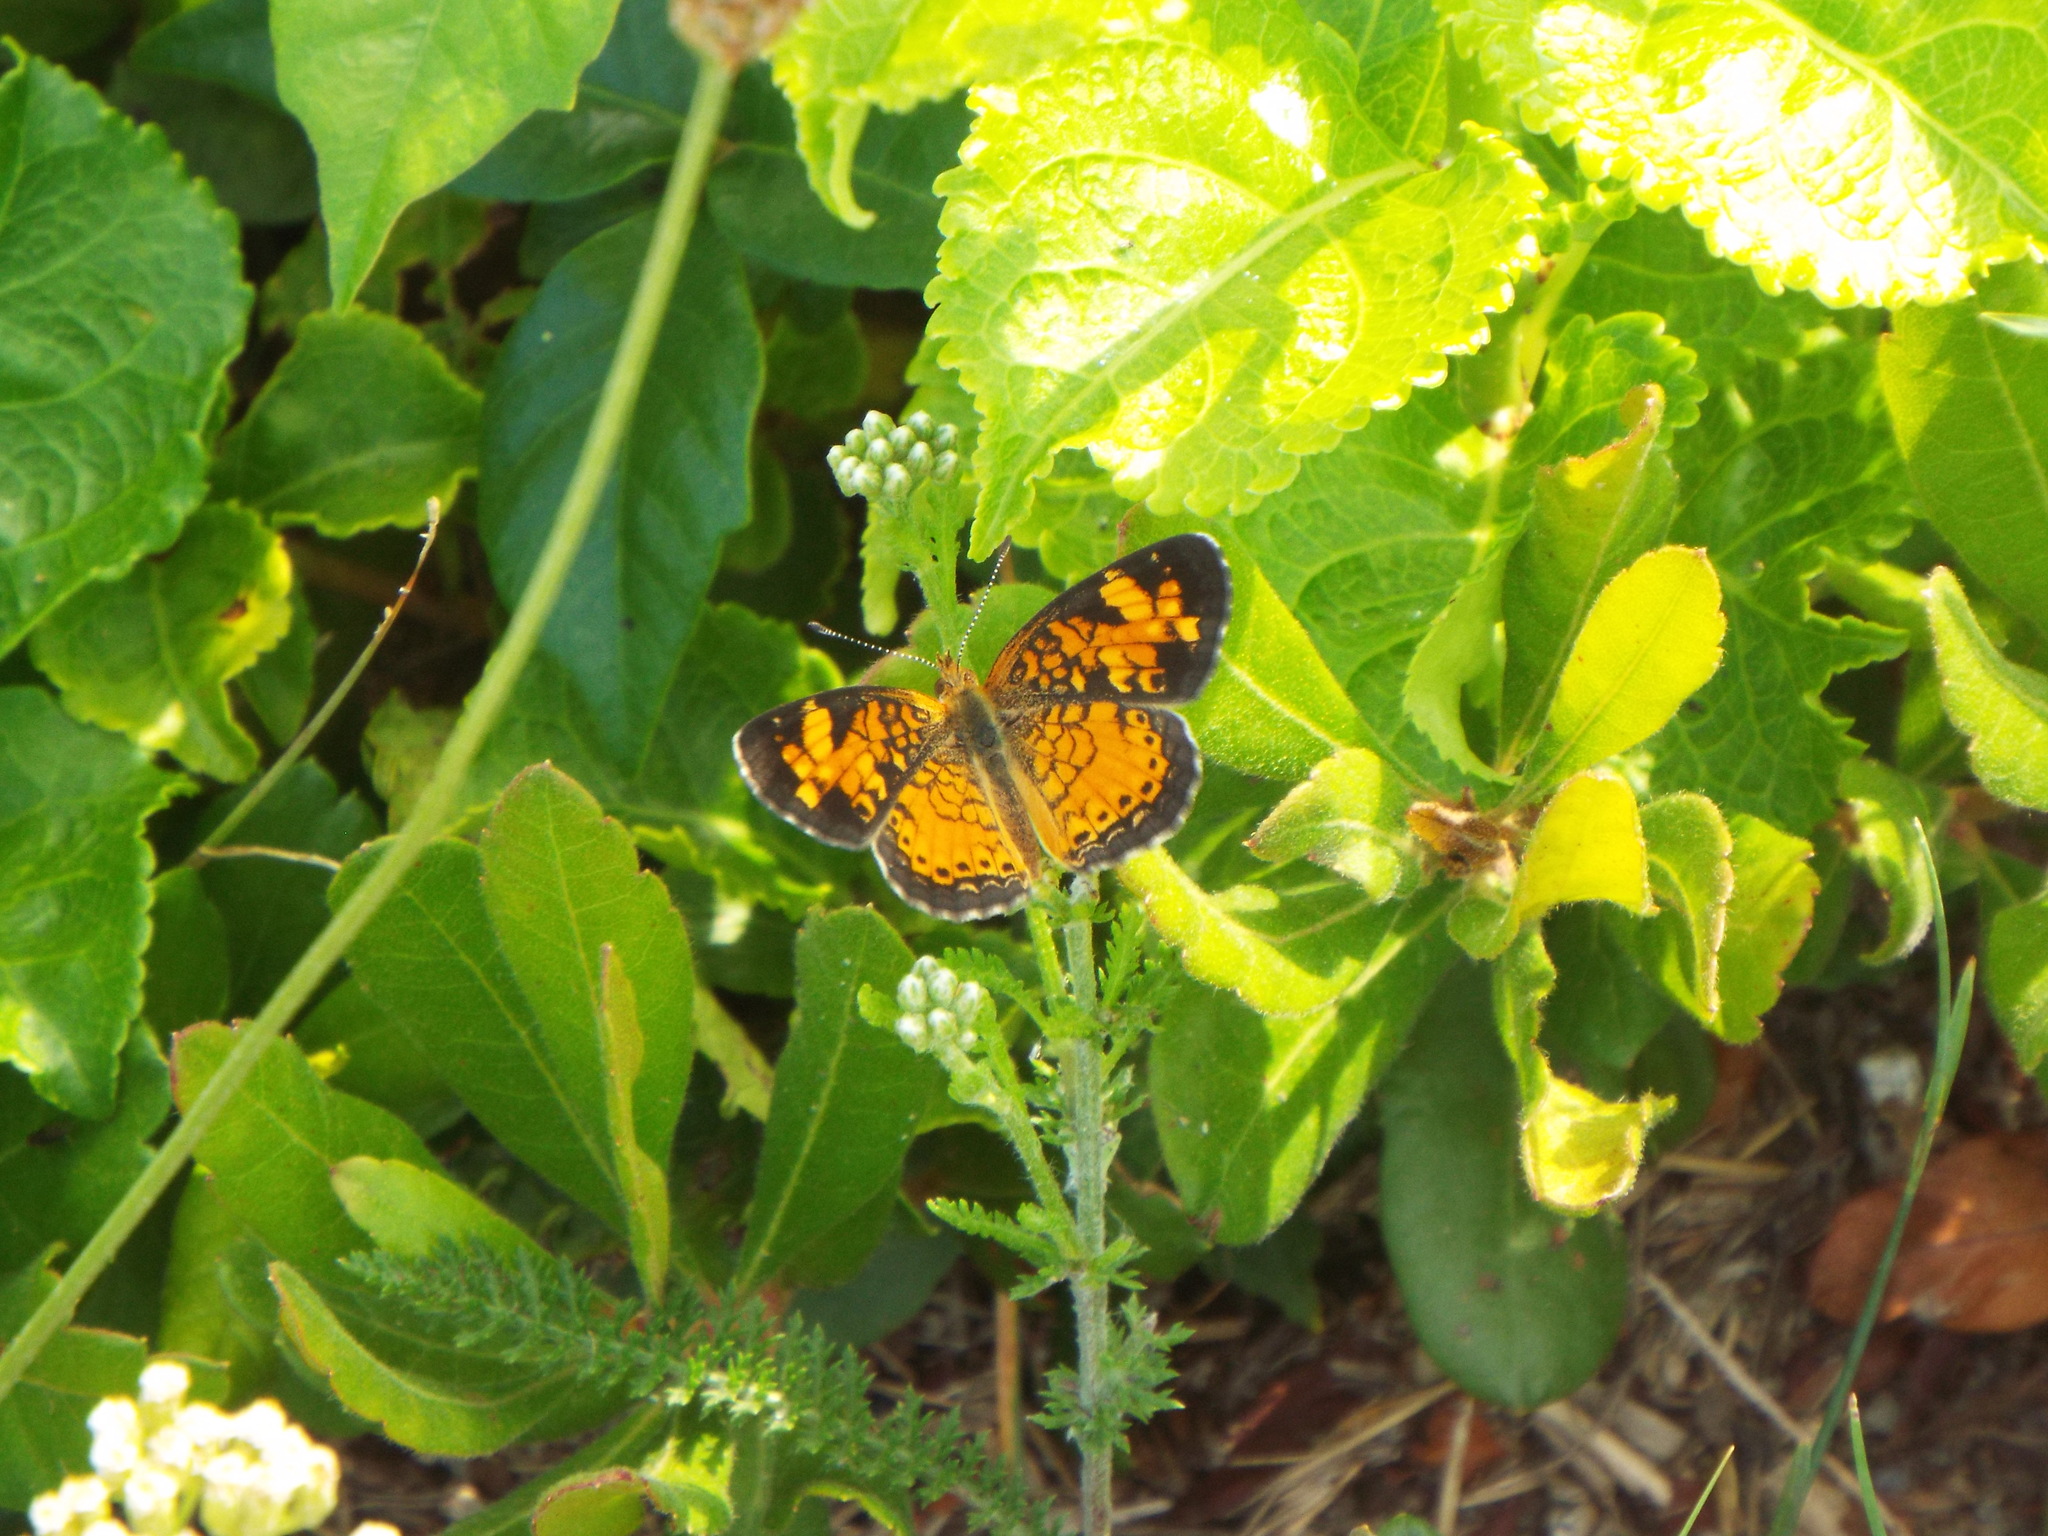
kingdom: Animalia
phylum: Arthropoda
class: Insecta
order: Lepidoptera
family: Nymphalidae
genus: Phyciodes
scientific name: Phyciodes tharos
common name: Pearl crescent
